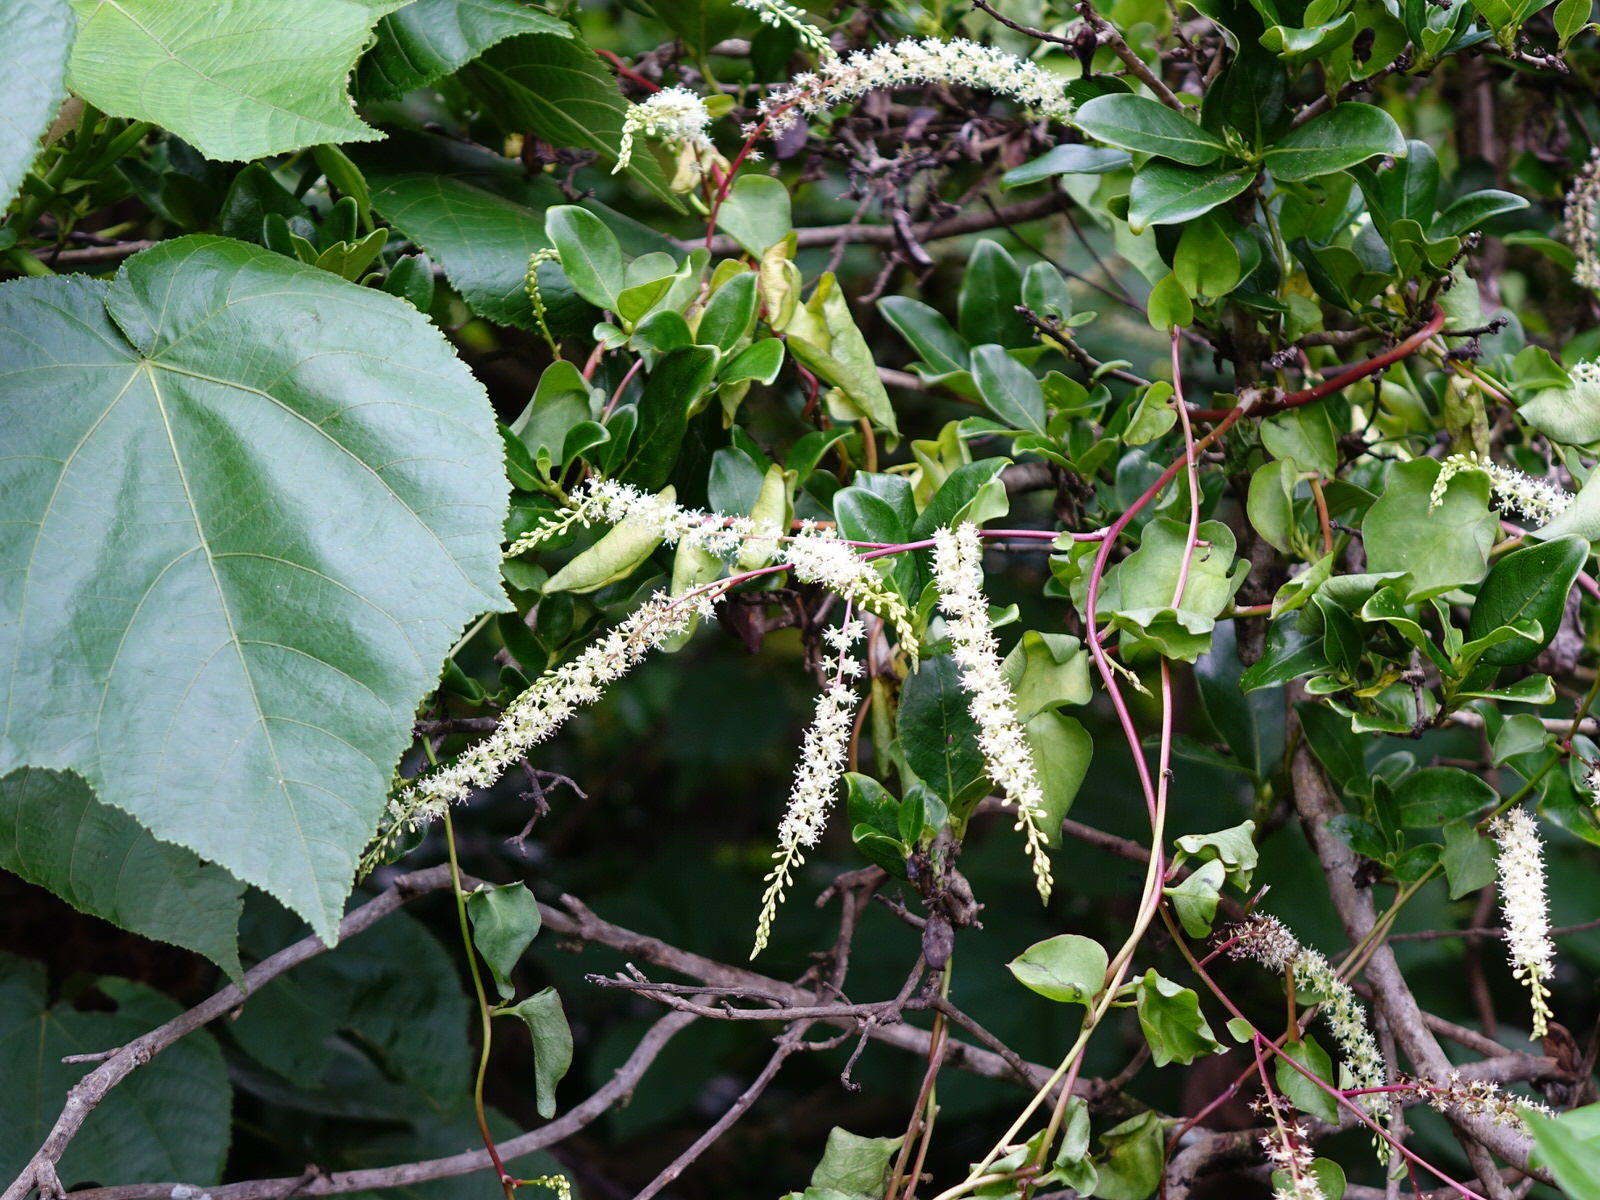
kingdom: Plantae
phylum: Tracheophyta
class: Magnoliopsida
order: Caryophyllales
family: Basellaceae
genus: Anredera
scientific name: Anredera cordifolia
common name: Heartleaf madeiravine
